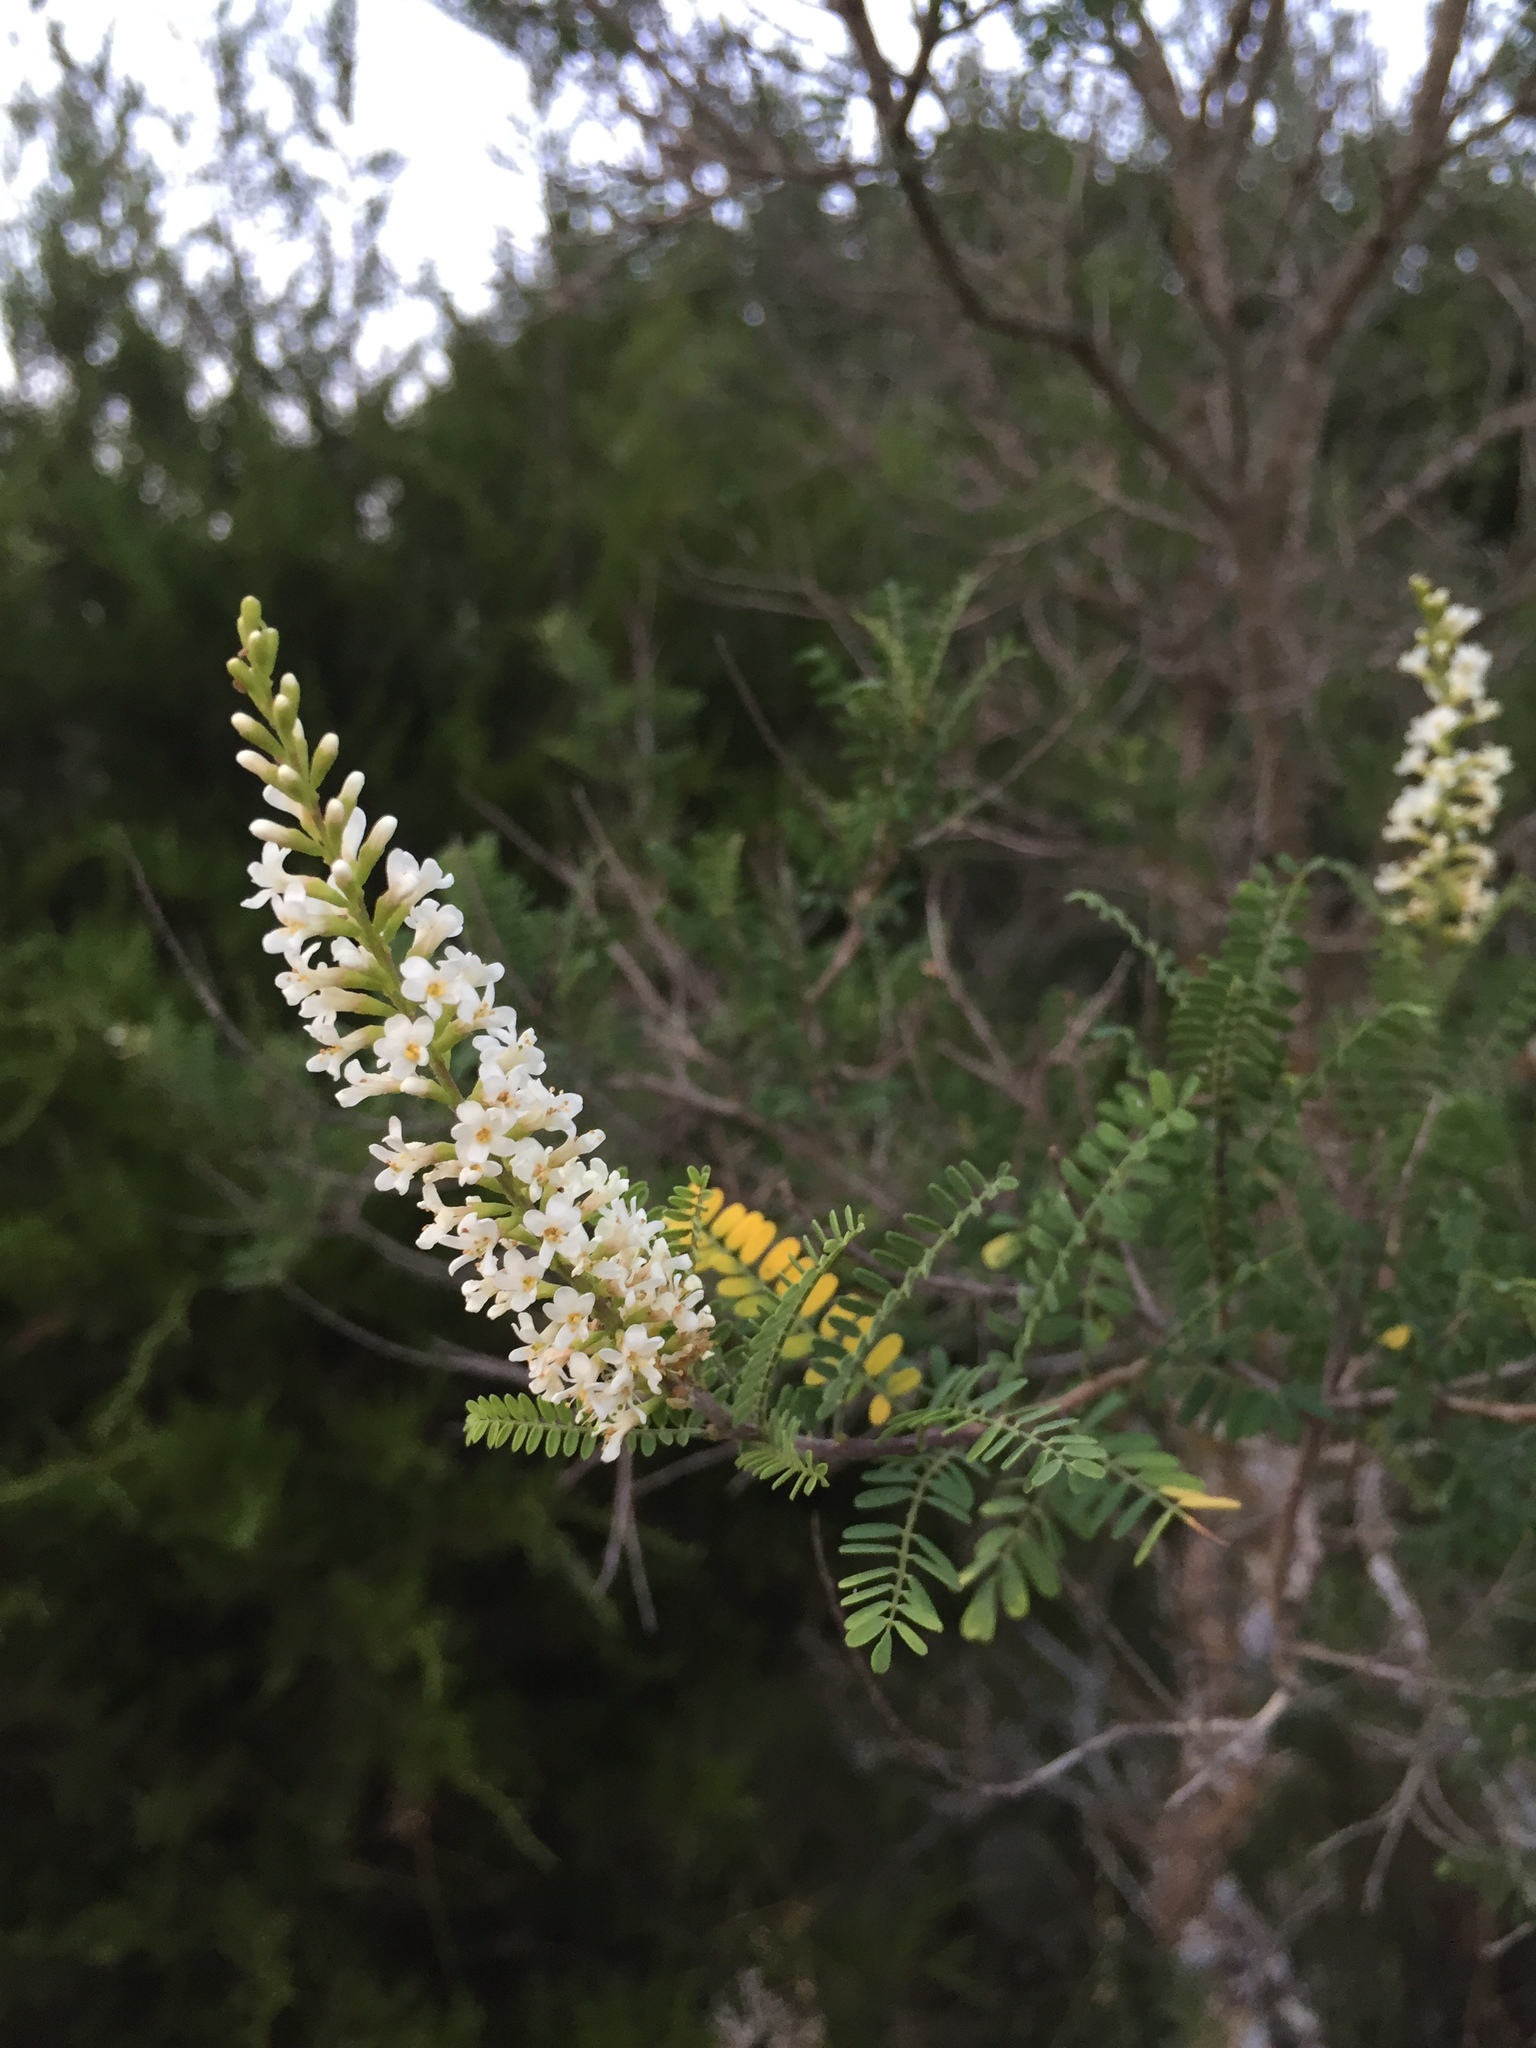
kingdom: Plantae
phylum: Tracheophyta
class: Magnoliopsida
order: Fabales
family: Fabaceae
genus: Eysenhardtia
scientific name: Eysenhardtia texana
